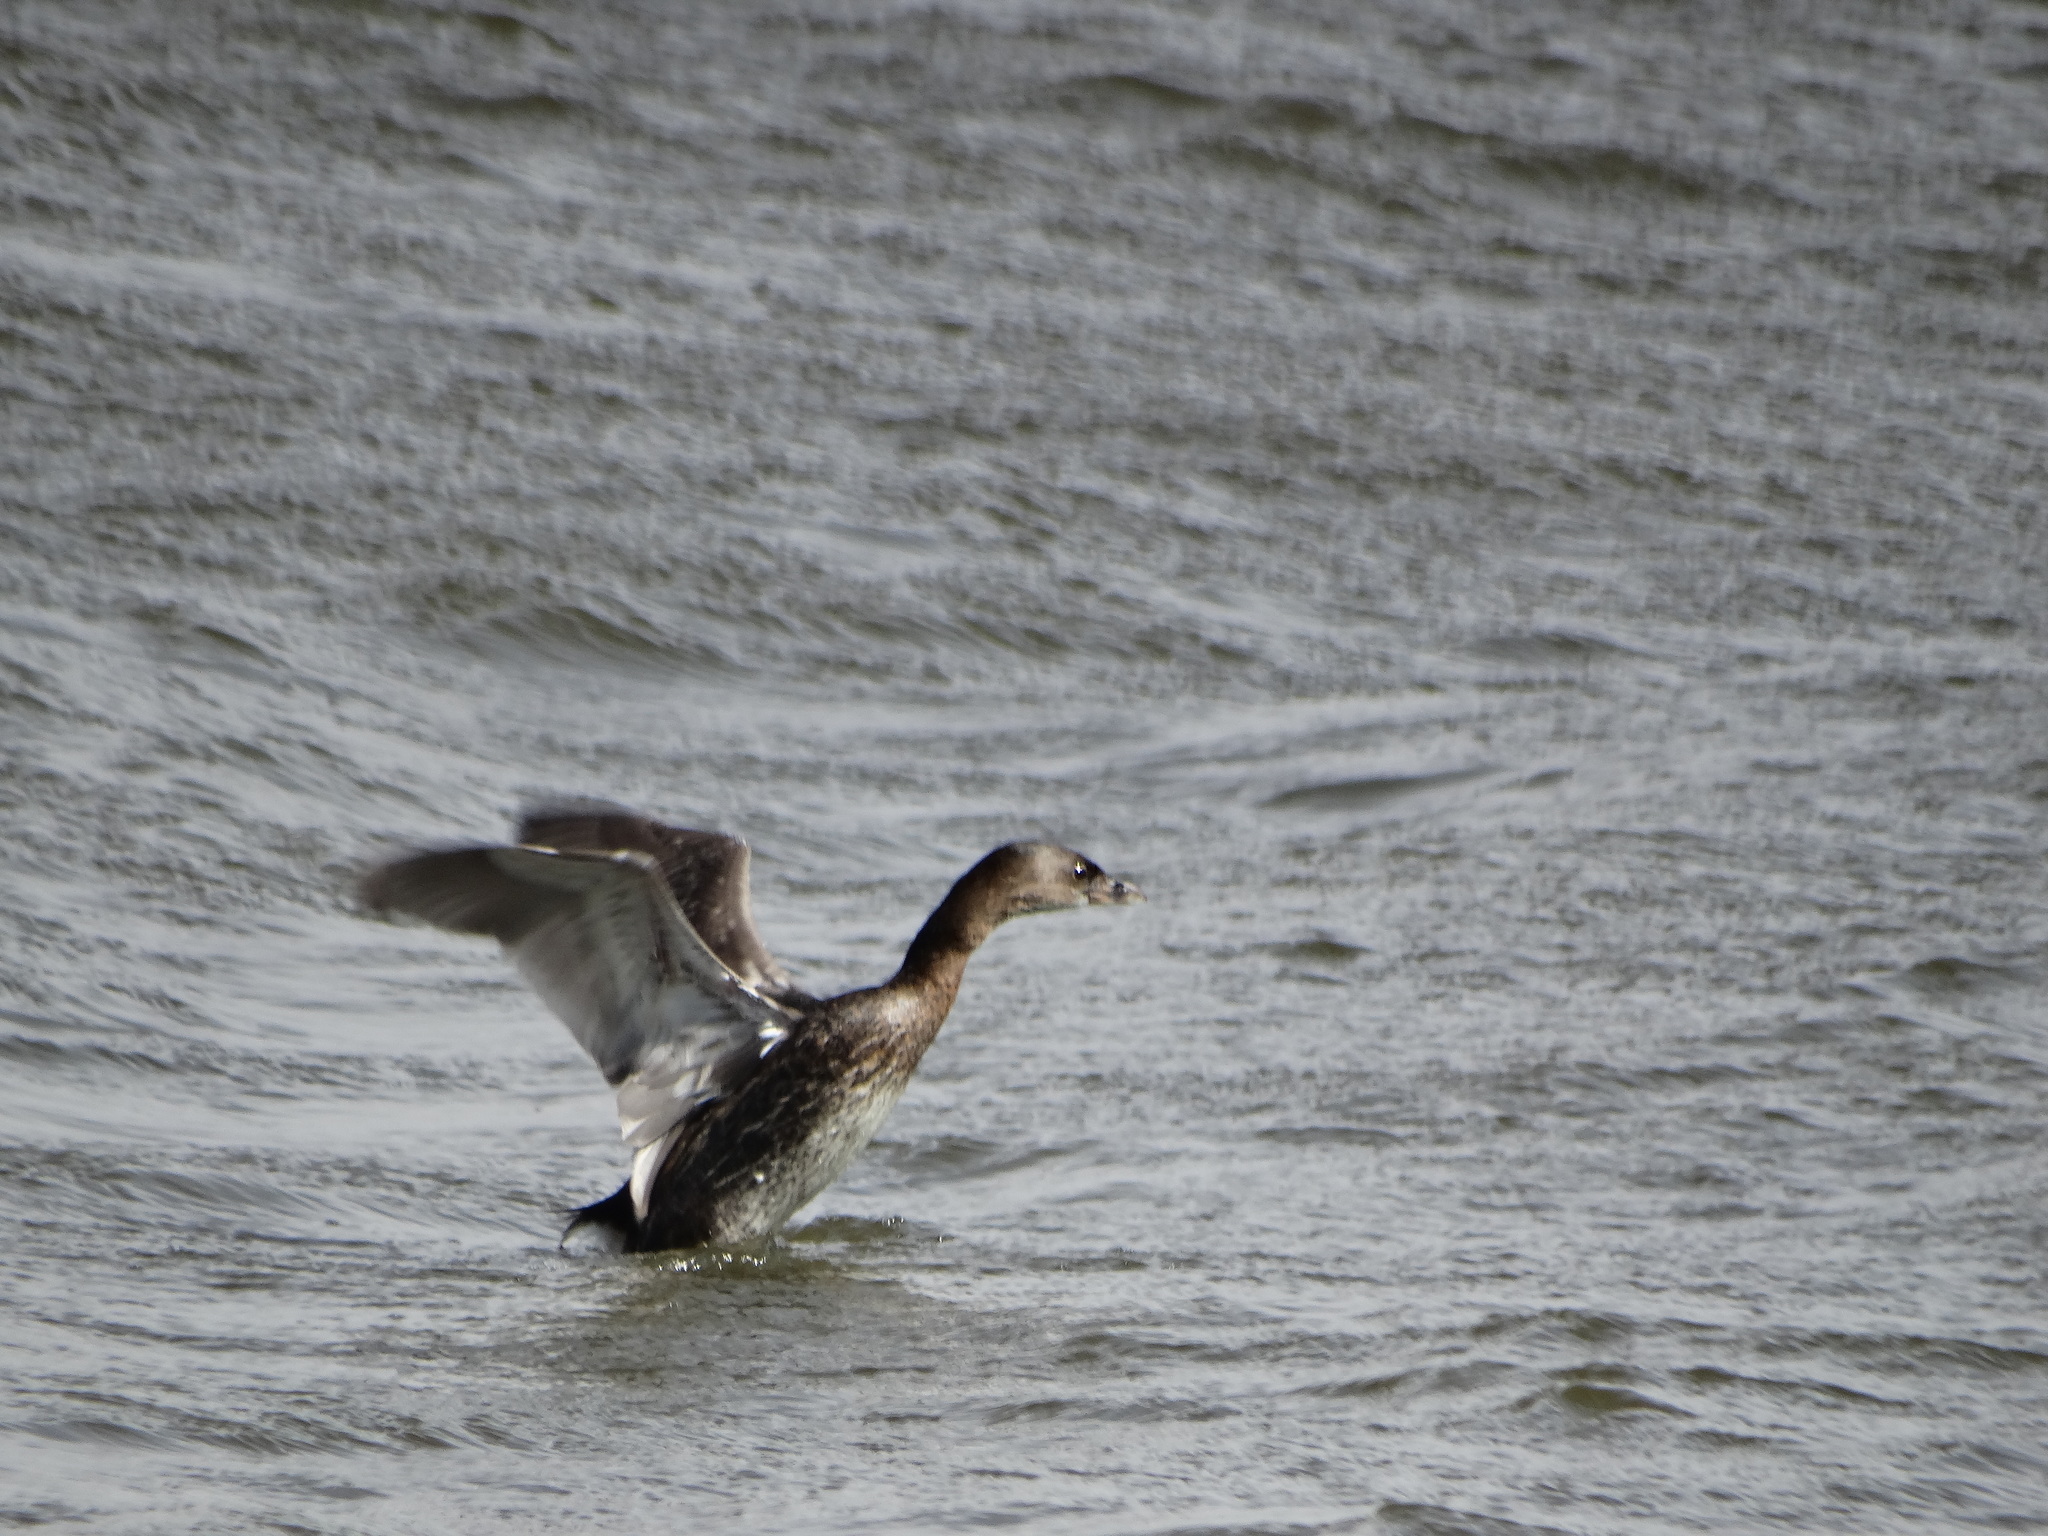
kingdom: Animalia
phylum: Chordata
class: Aves
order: Podicipediformes
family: Podicipedidae
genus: Podilymbus
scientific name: Podilymbus podiceps
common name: Pied-billed grebe
